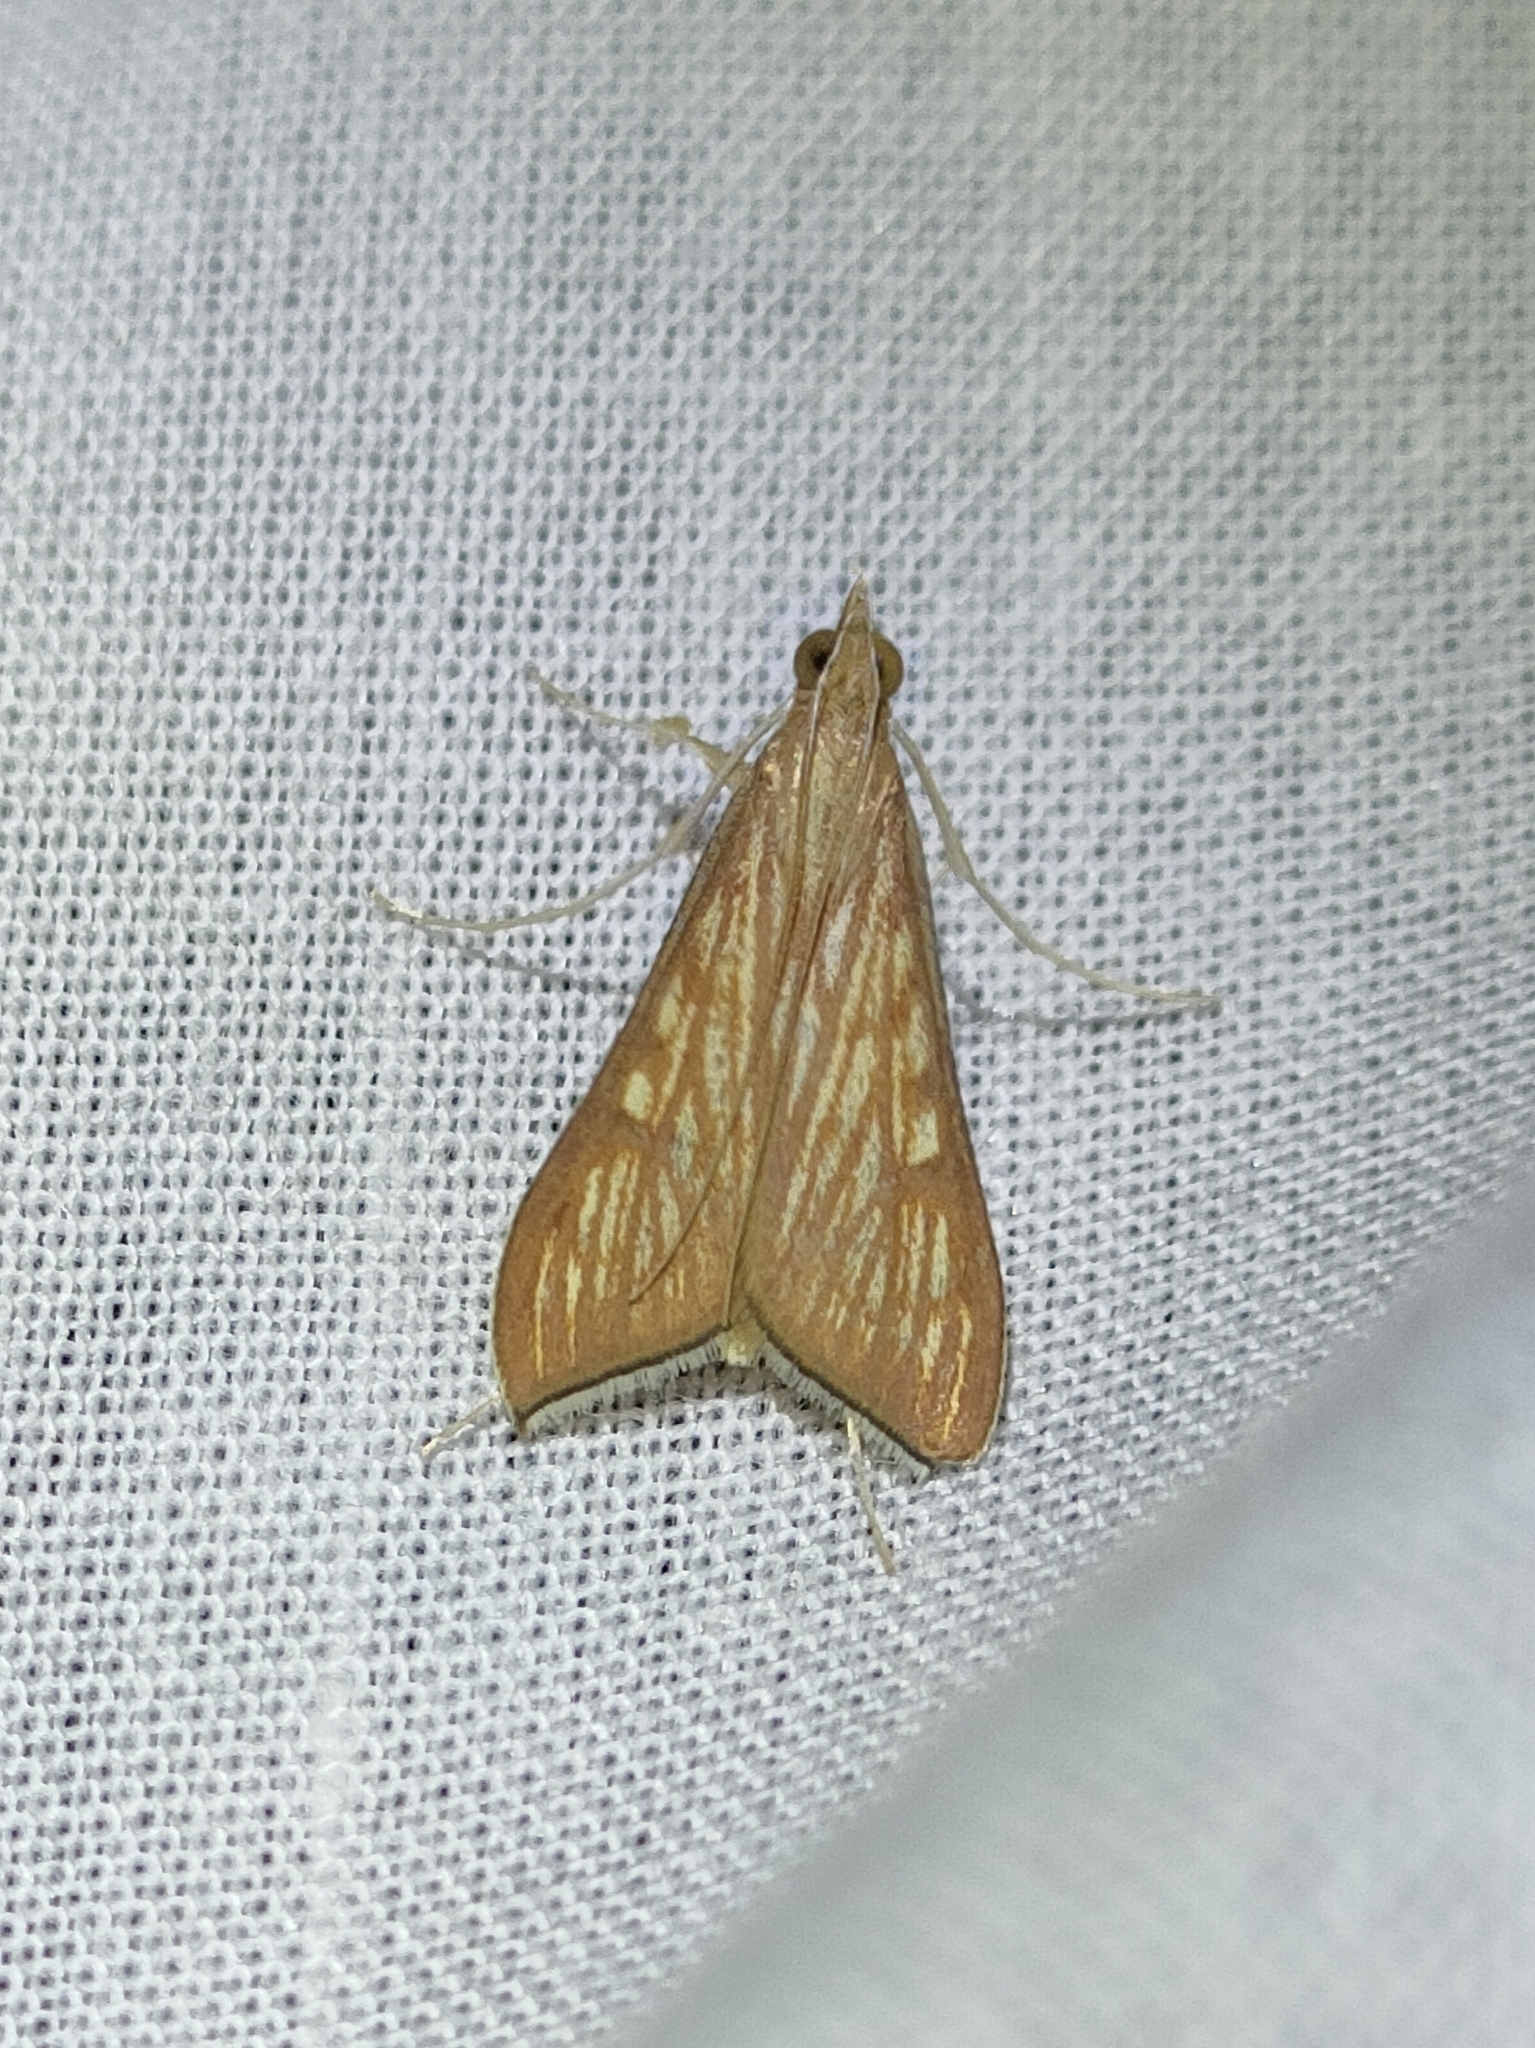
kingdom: Animalia
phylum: Arthropoda
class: Insecta
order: Lepidoptera
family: Crambidae
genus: Antigastra
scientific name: Antigastra catalaunalis
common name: Spanish dot
